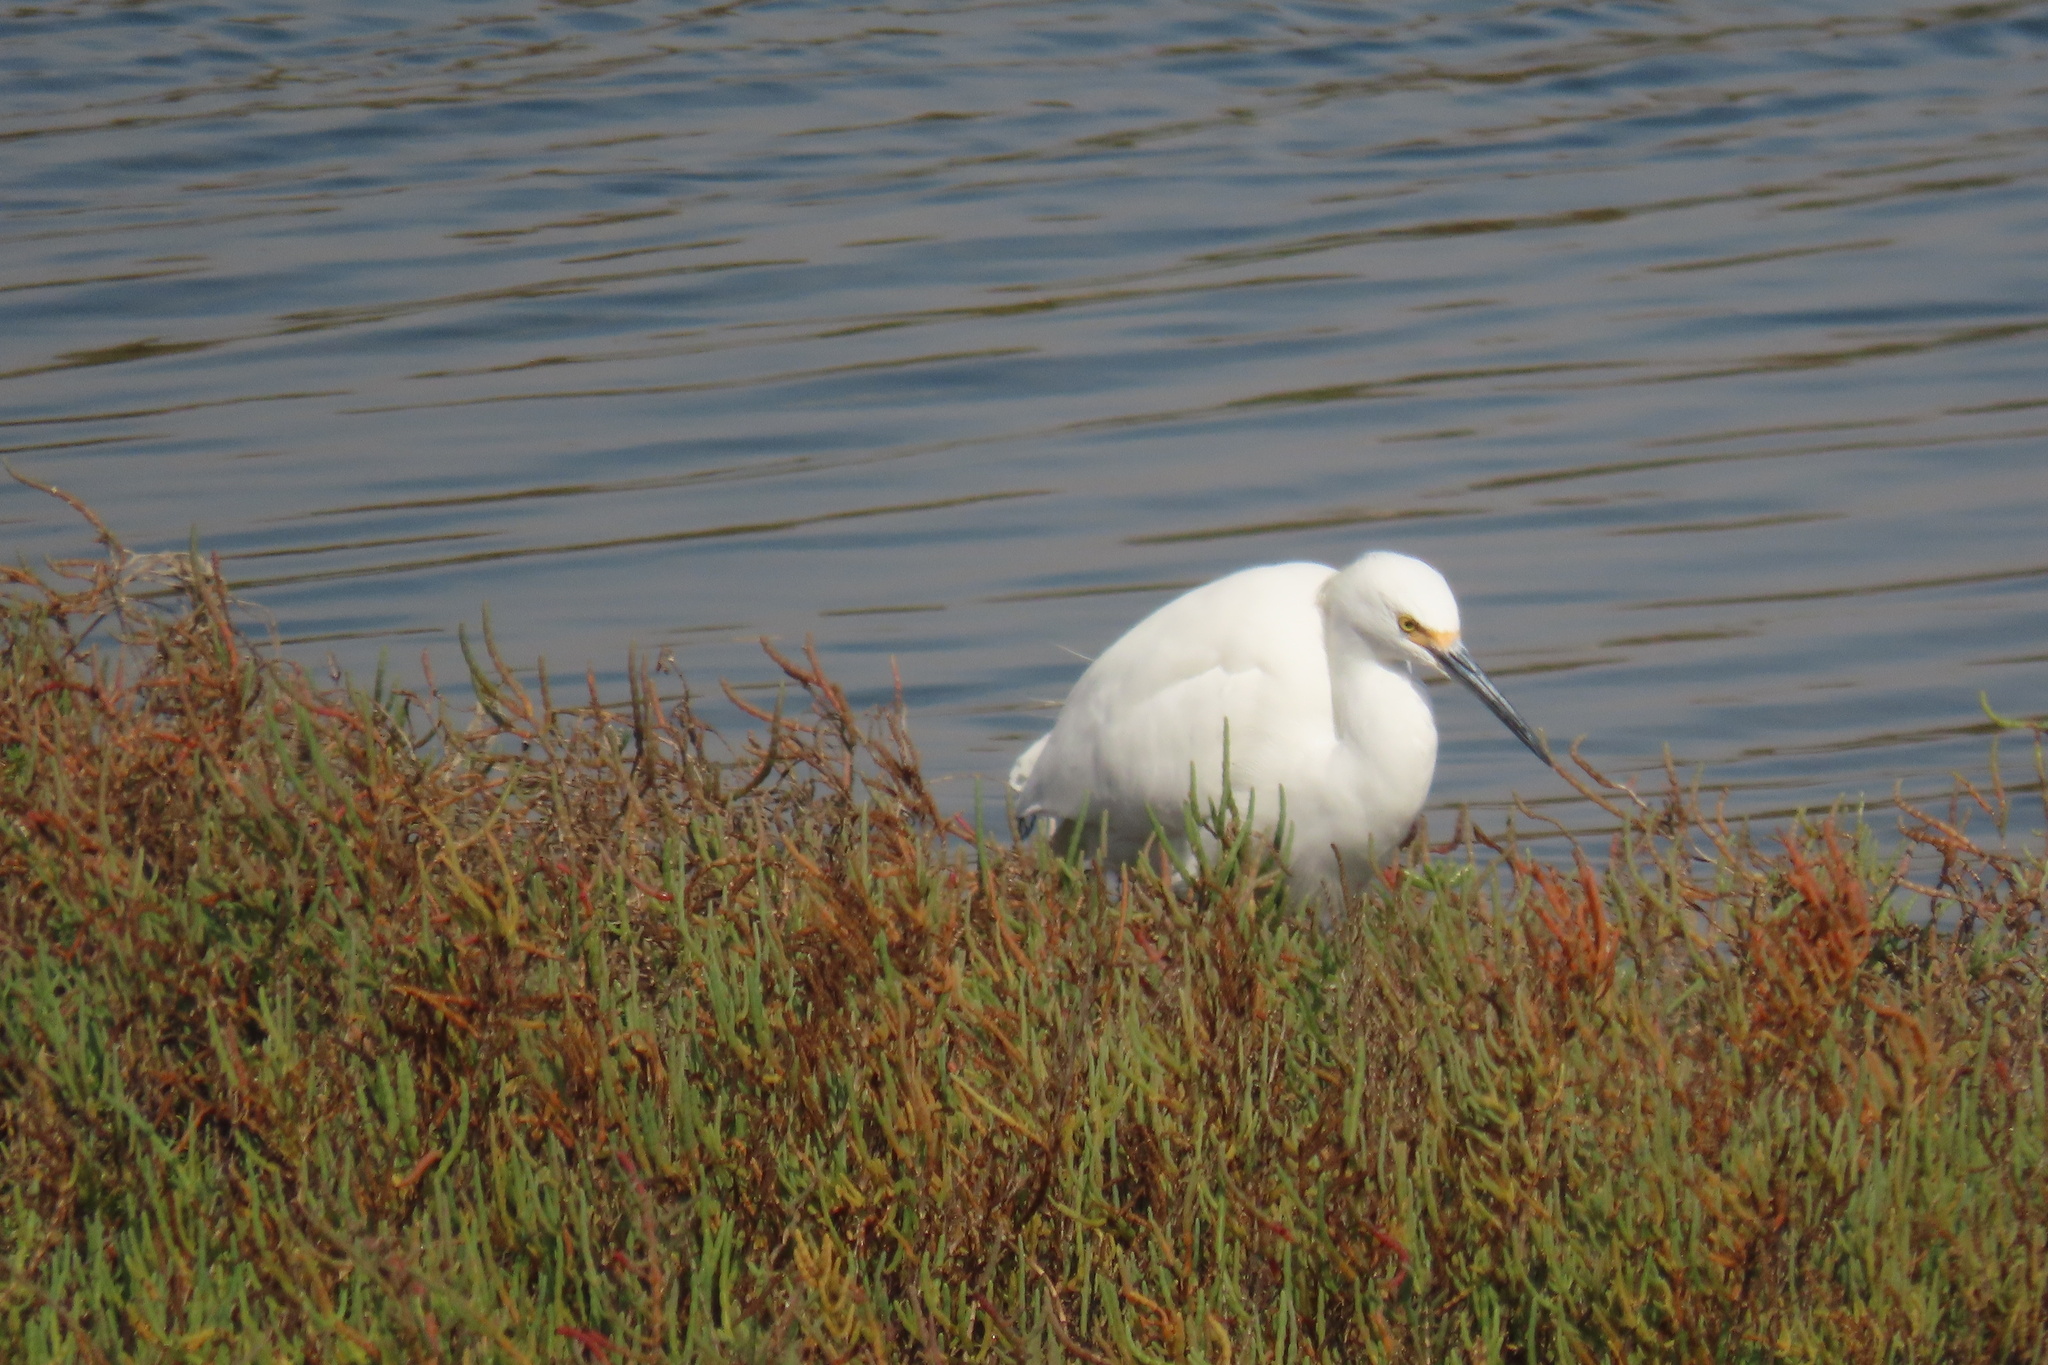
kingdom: Animalia
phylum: Chordata
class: Aves
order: Pelecaniformes
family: Ardeidae
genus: Egretta
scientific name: Egretta thula
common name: Snowy egret
